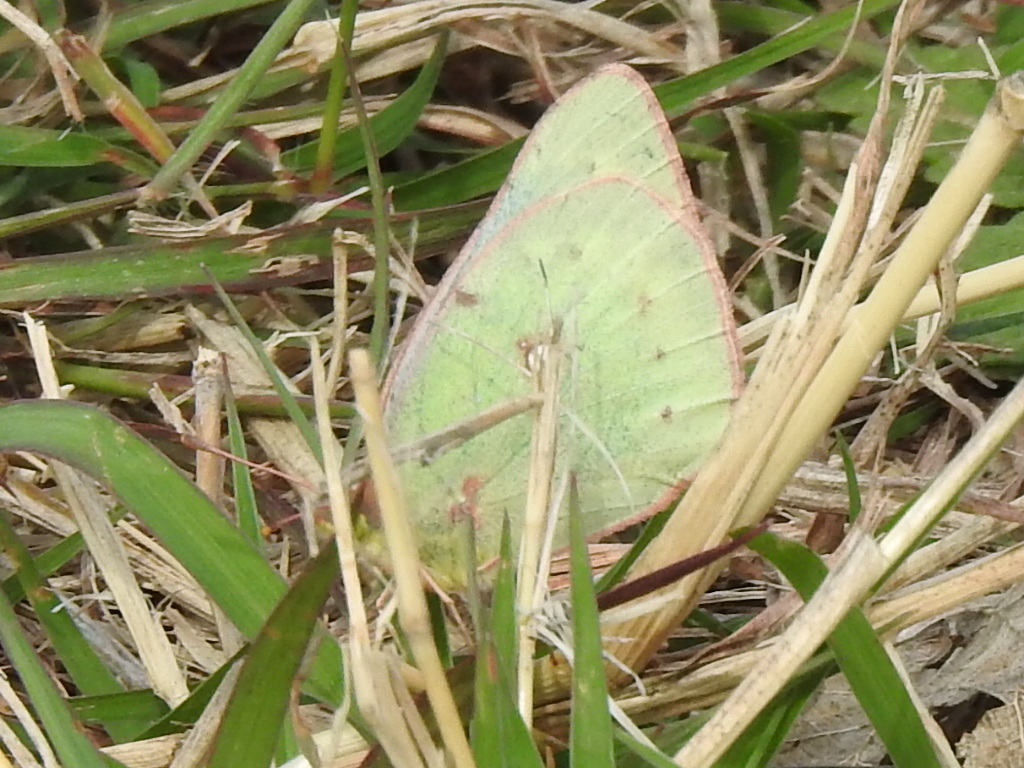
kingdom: Animalia
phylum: Arthropoda
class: Insecta
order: Lepidoptera
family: Pieridae
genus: Colias
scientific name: Colias eurytheme
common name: Alfalfa butterfly
